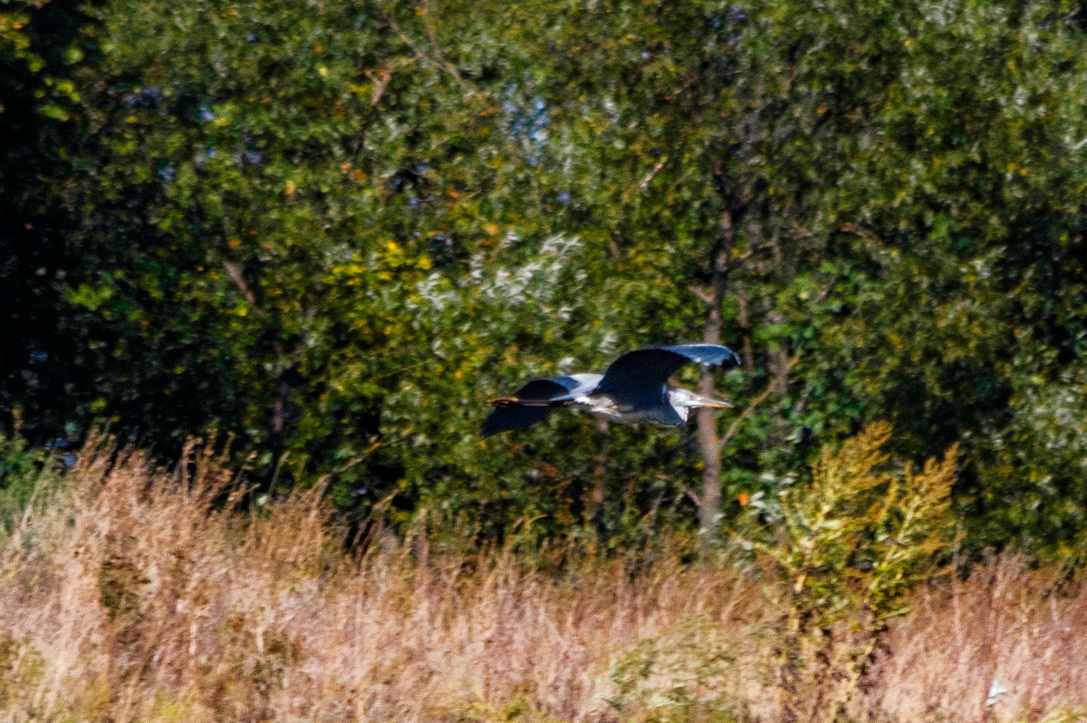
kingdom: Animalia
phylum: Chordata
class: Aves
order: Pelecaniformes
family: Ardeidae
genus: Ardea
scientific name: Ardea cinerea
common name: Grey heron
